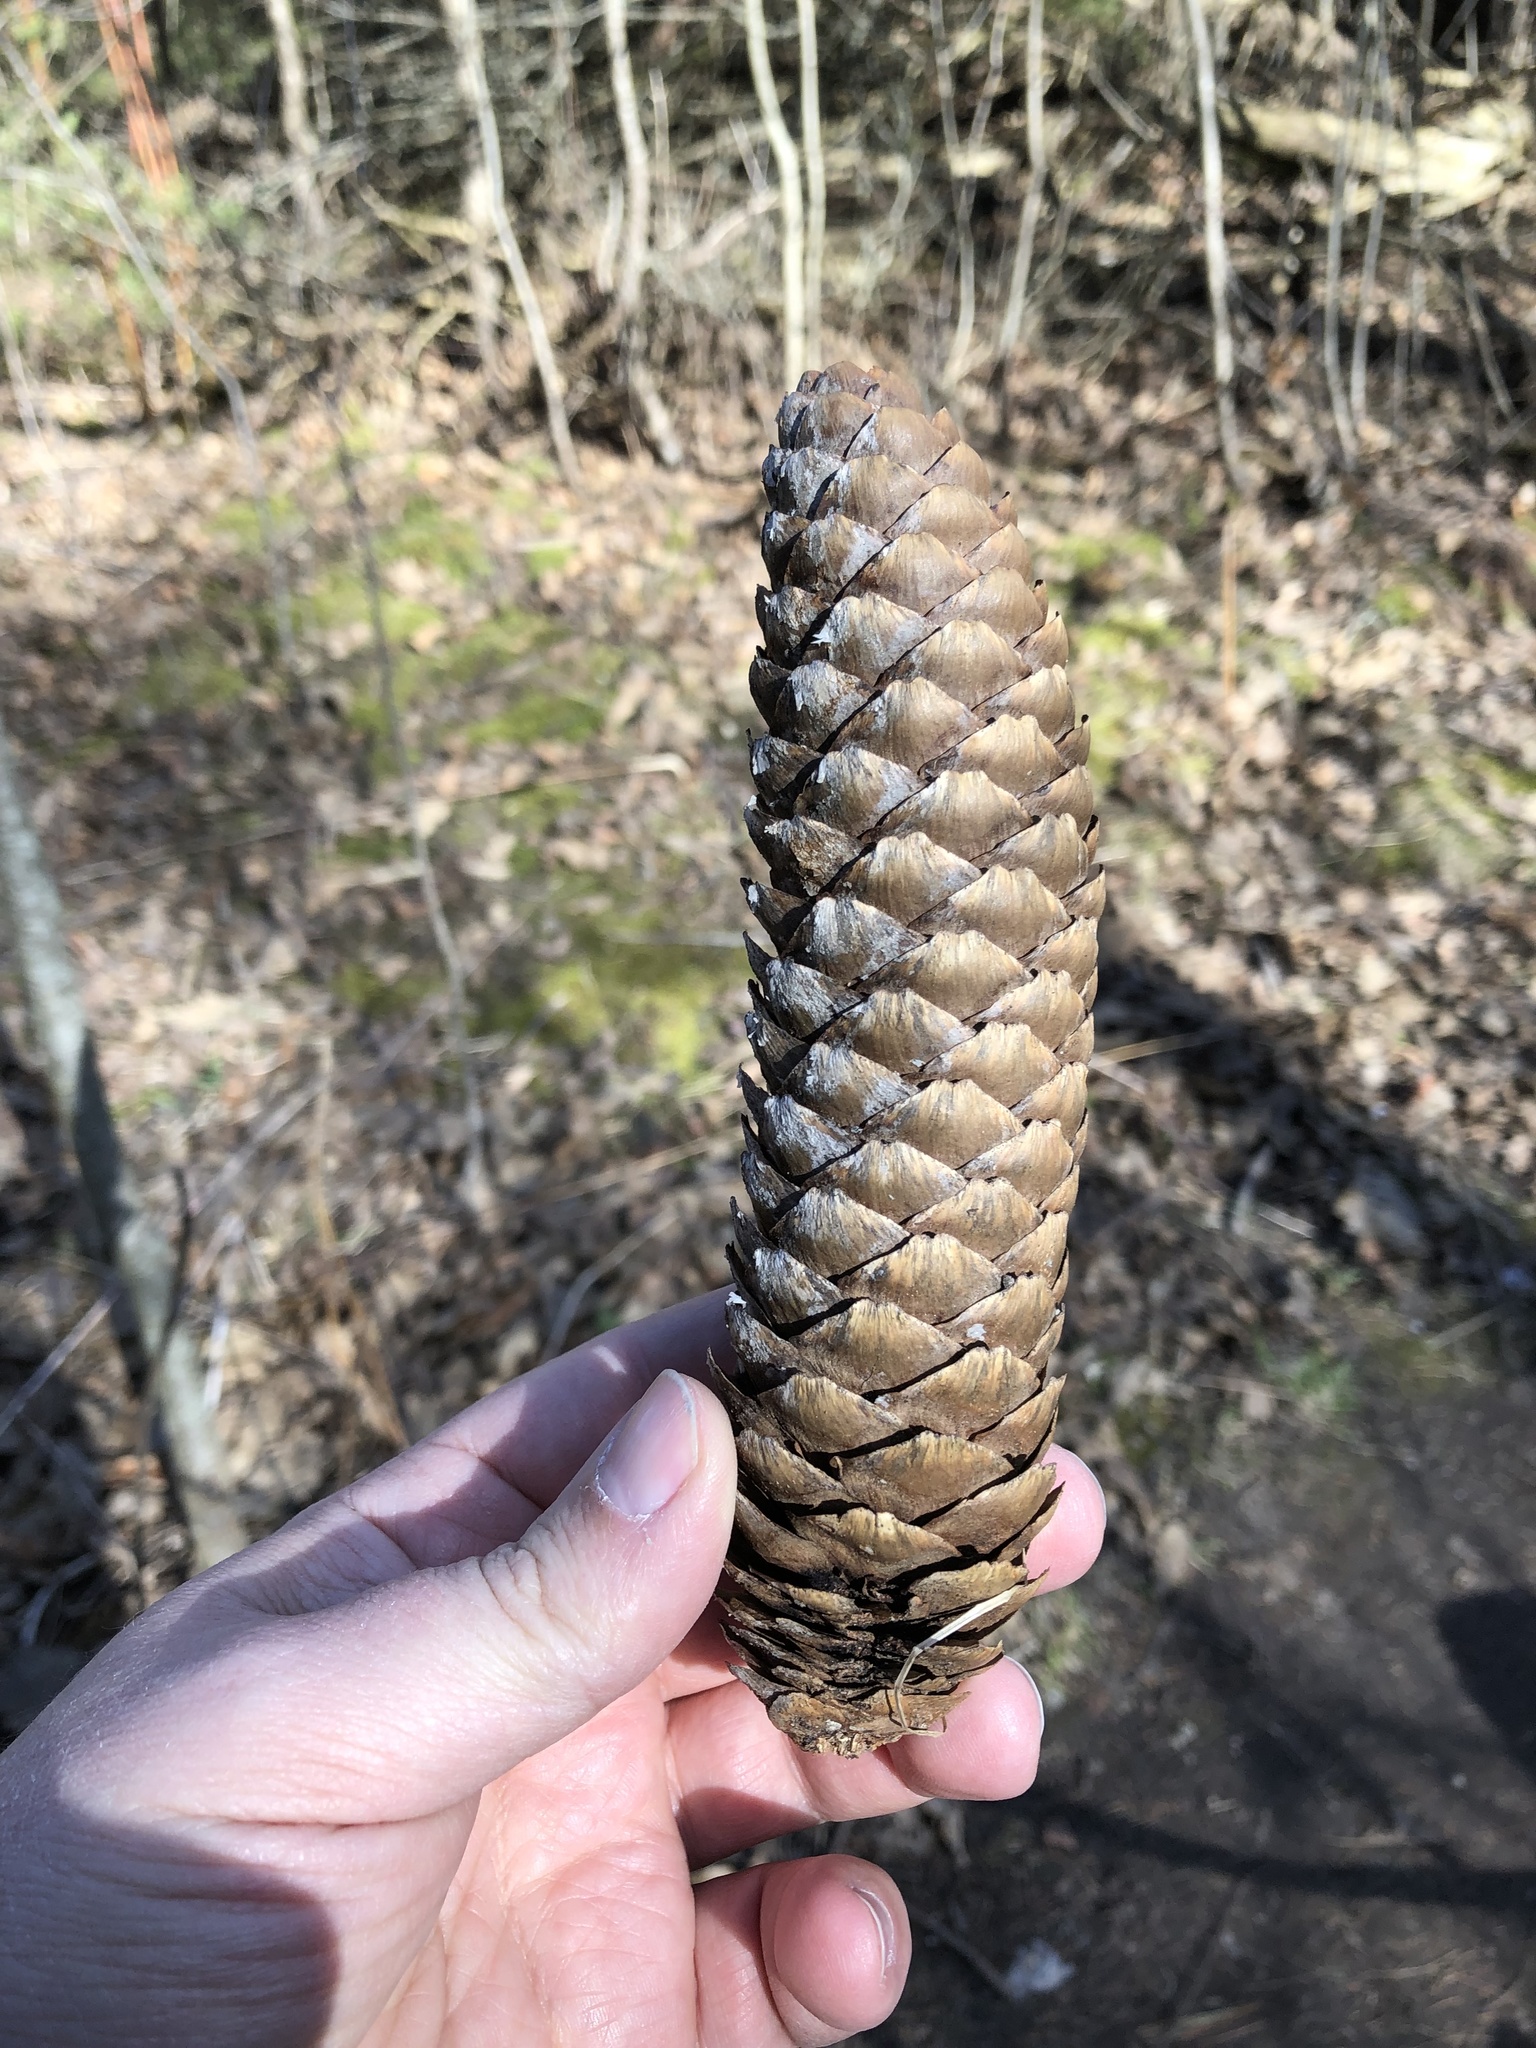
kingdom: Plantae
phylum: Tracheophyta
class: Pinopsida
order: Pinales
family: Pinaceae
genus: Picea
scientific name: Picea abies
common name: Norway spruce
